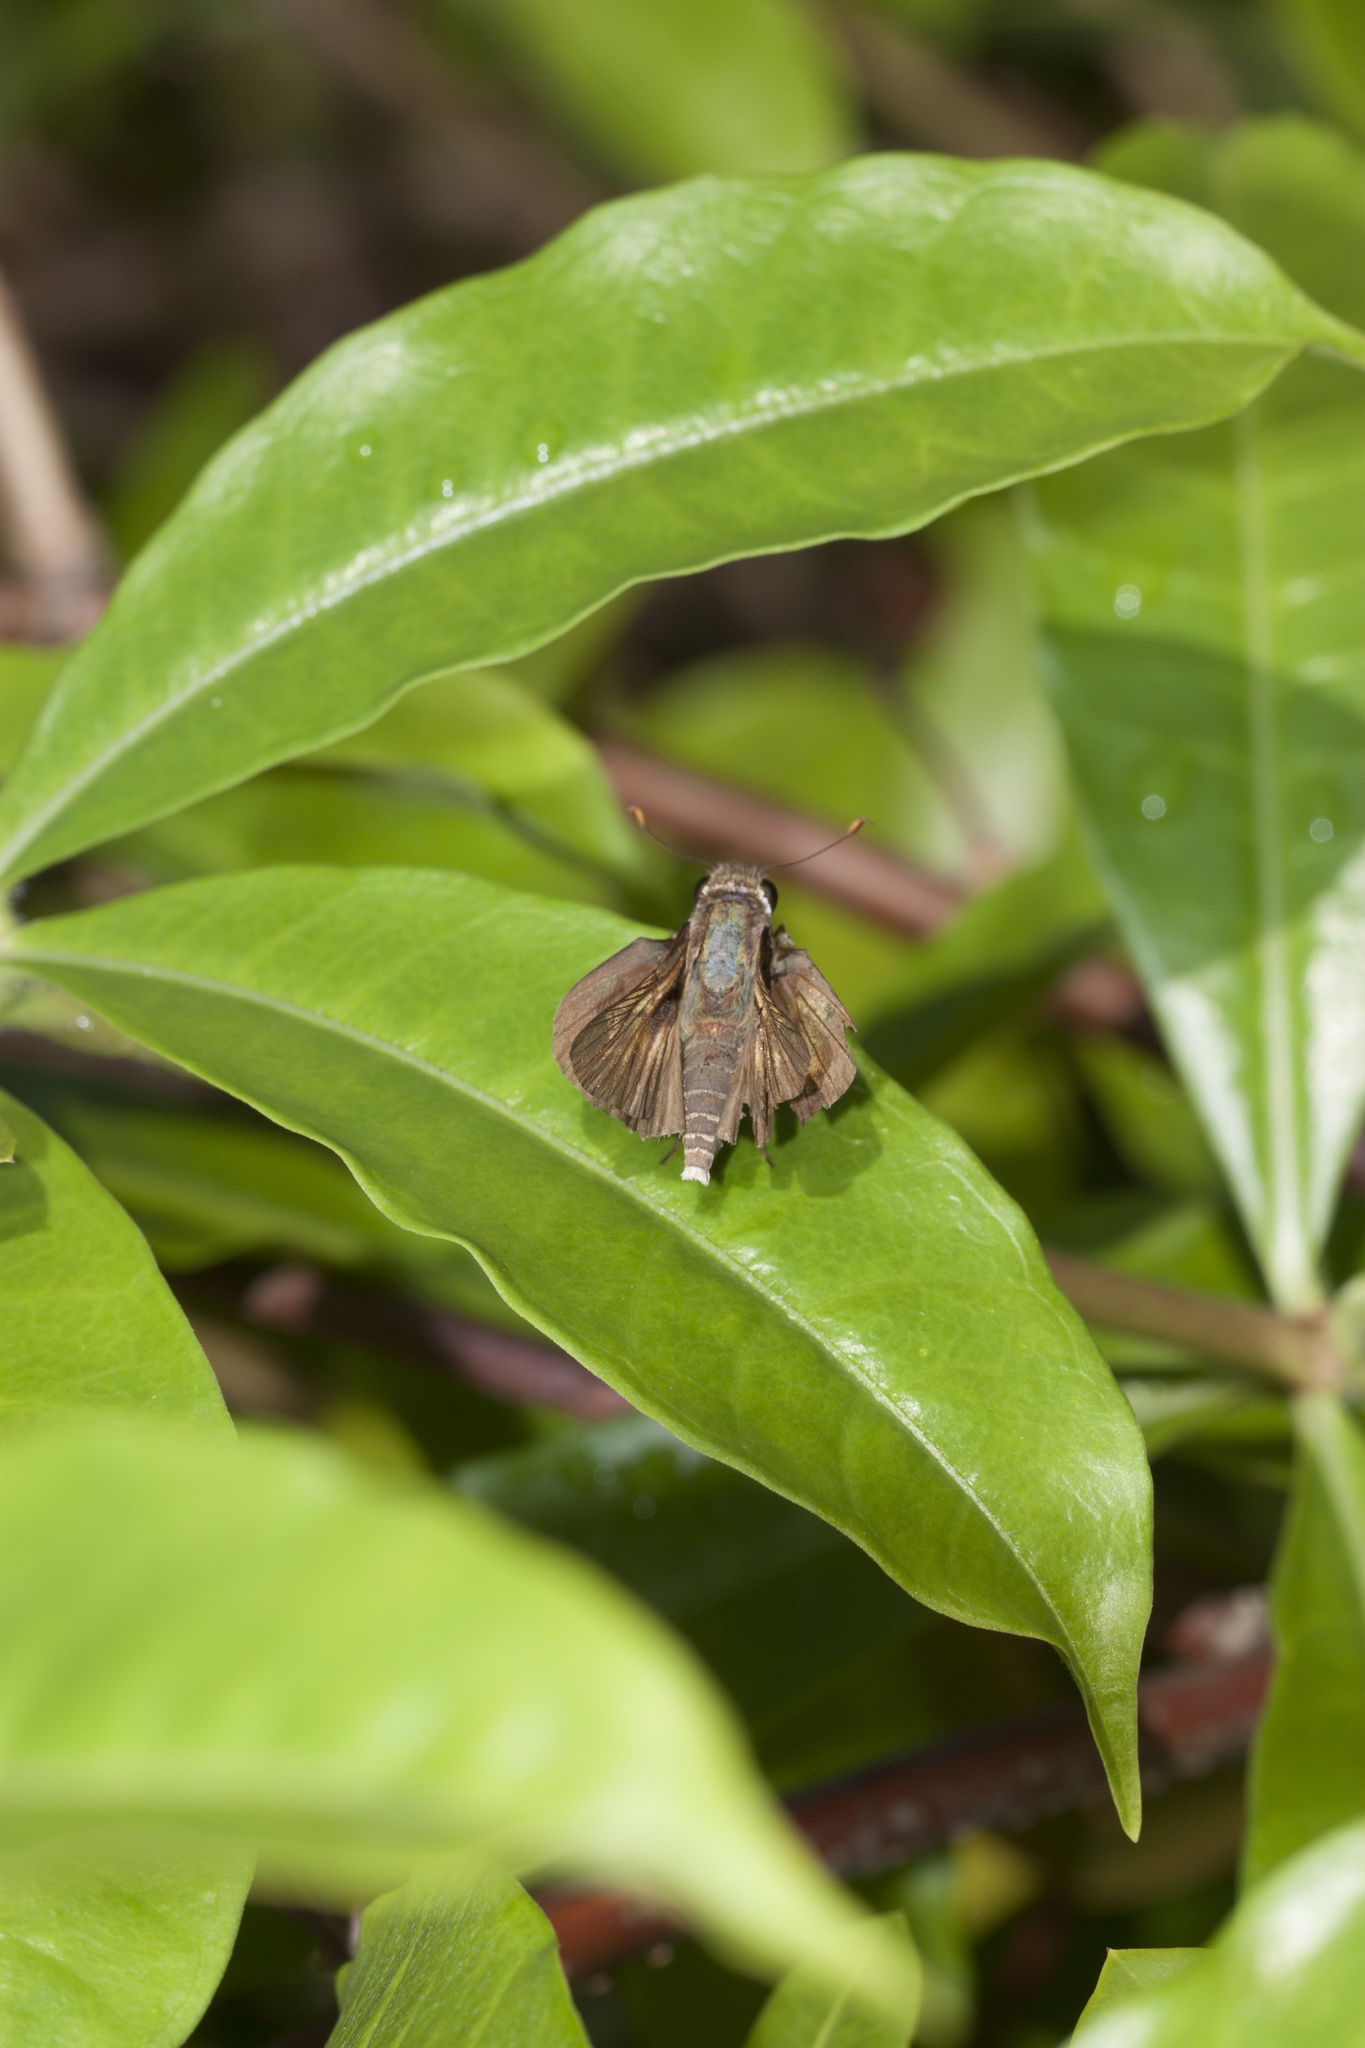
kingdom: Animalia
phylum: Arthropoda
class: Insecta
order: Lepidoptera
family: Hesperiidae
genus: Polites
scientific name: Polites otho
